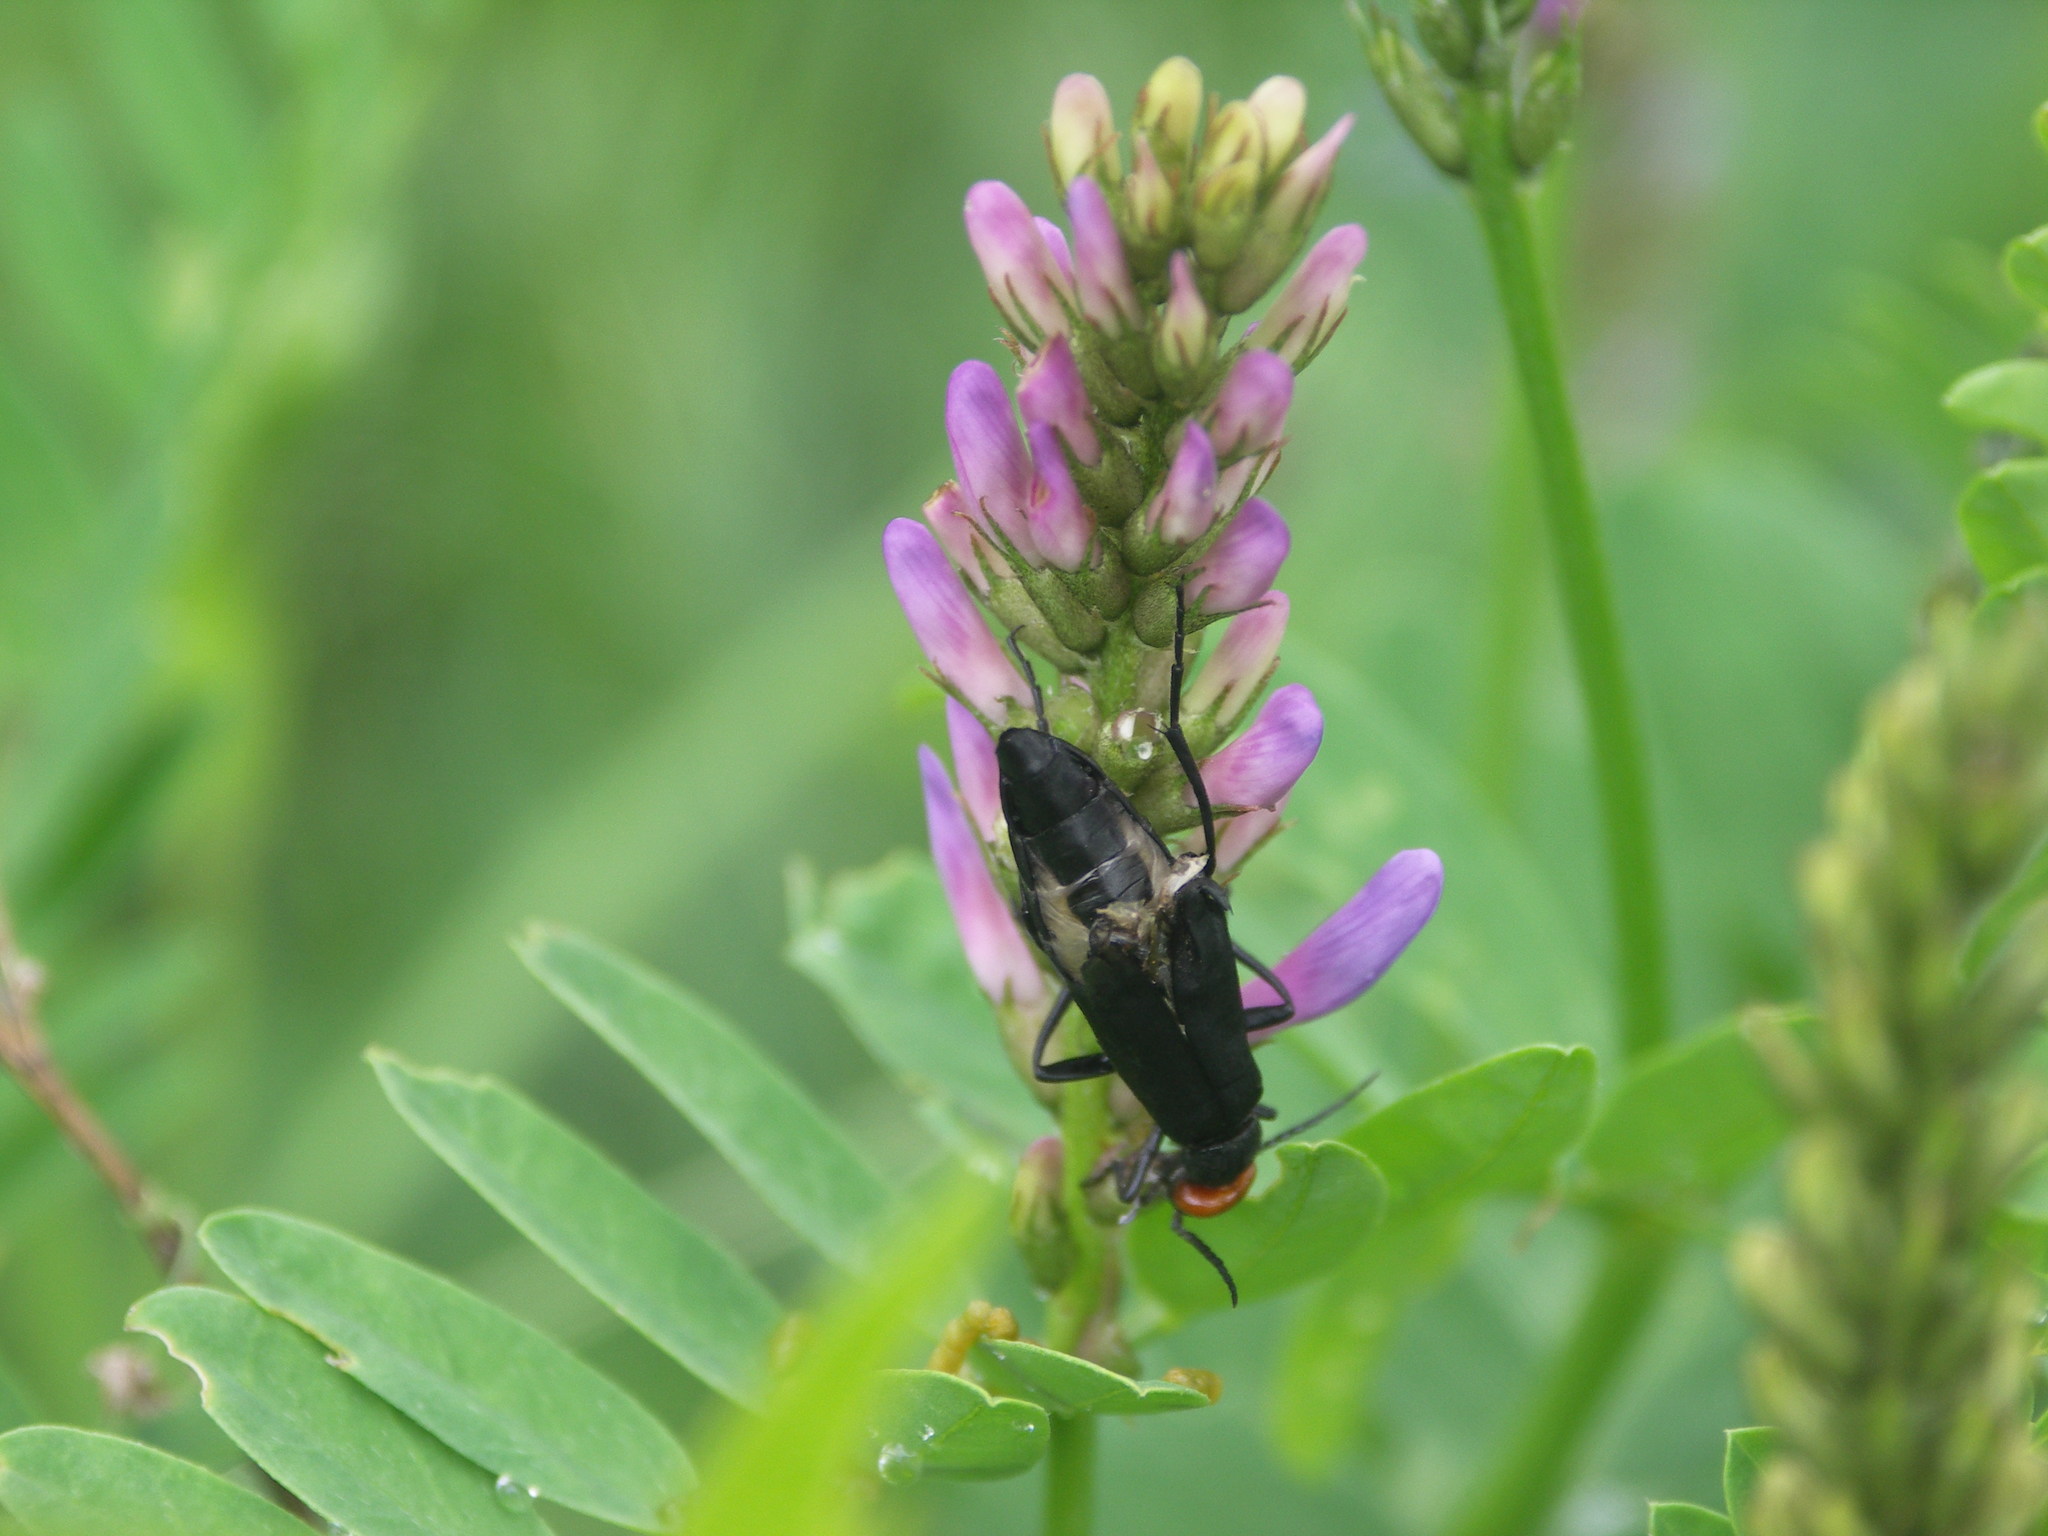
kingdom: Animalia
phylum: Arthropoda
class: Insecta
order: Coleoptera
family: Meloidae
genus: Epicauta
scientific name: Epicauta flabellicornis
